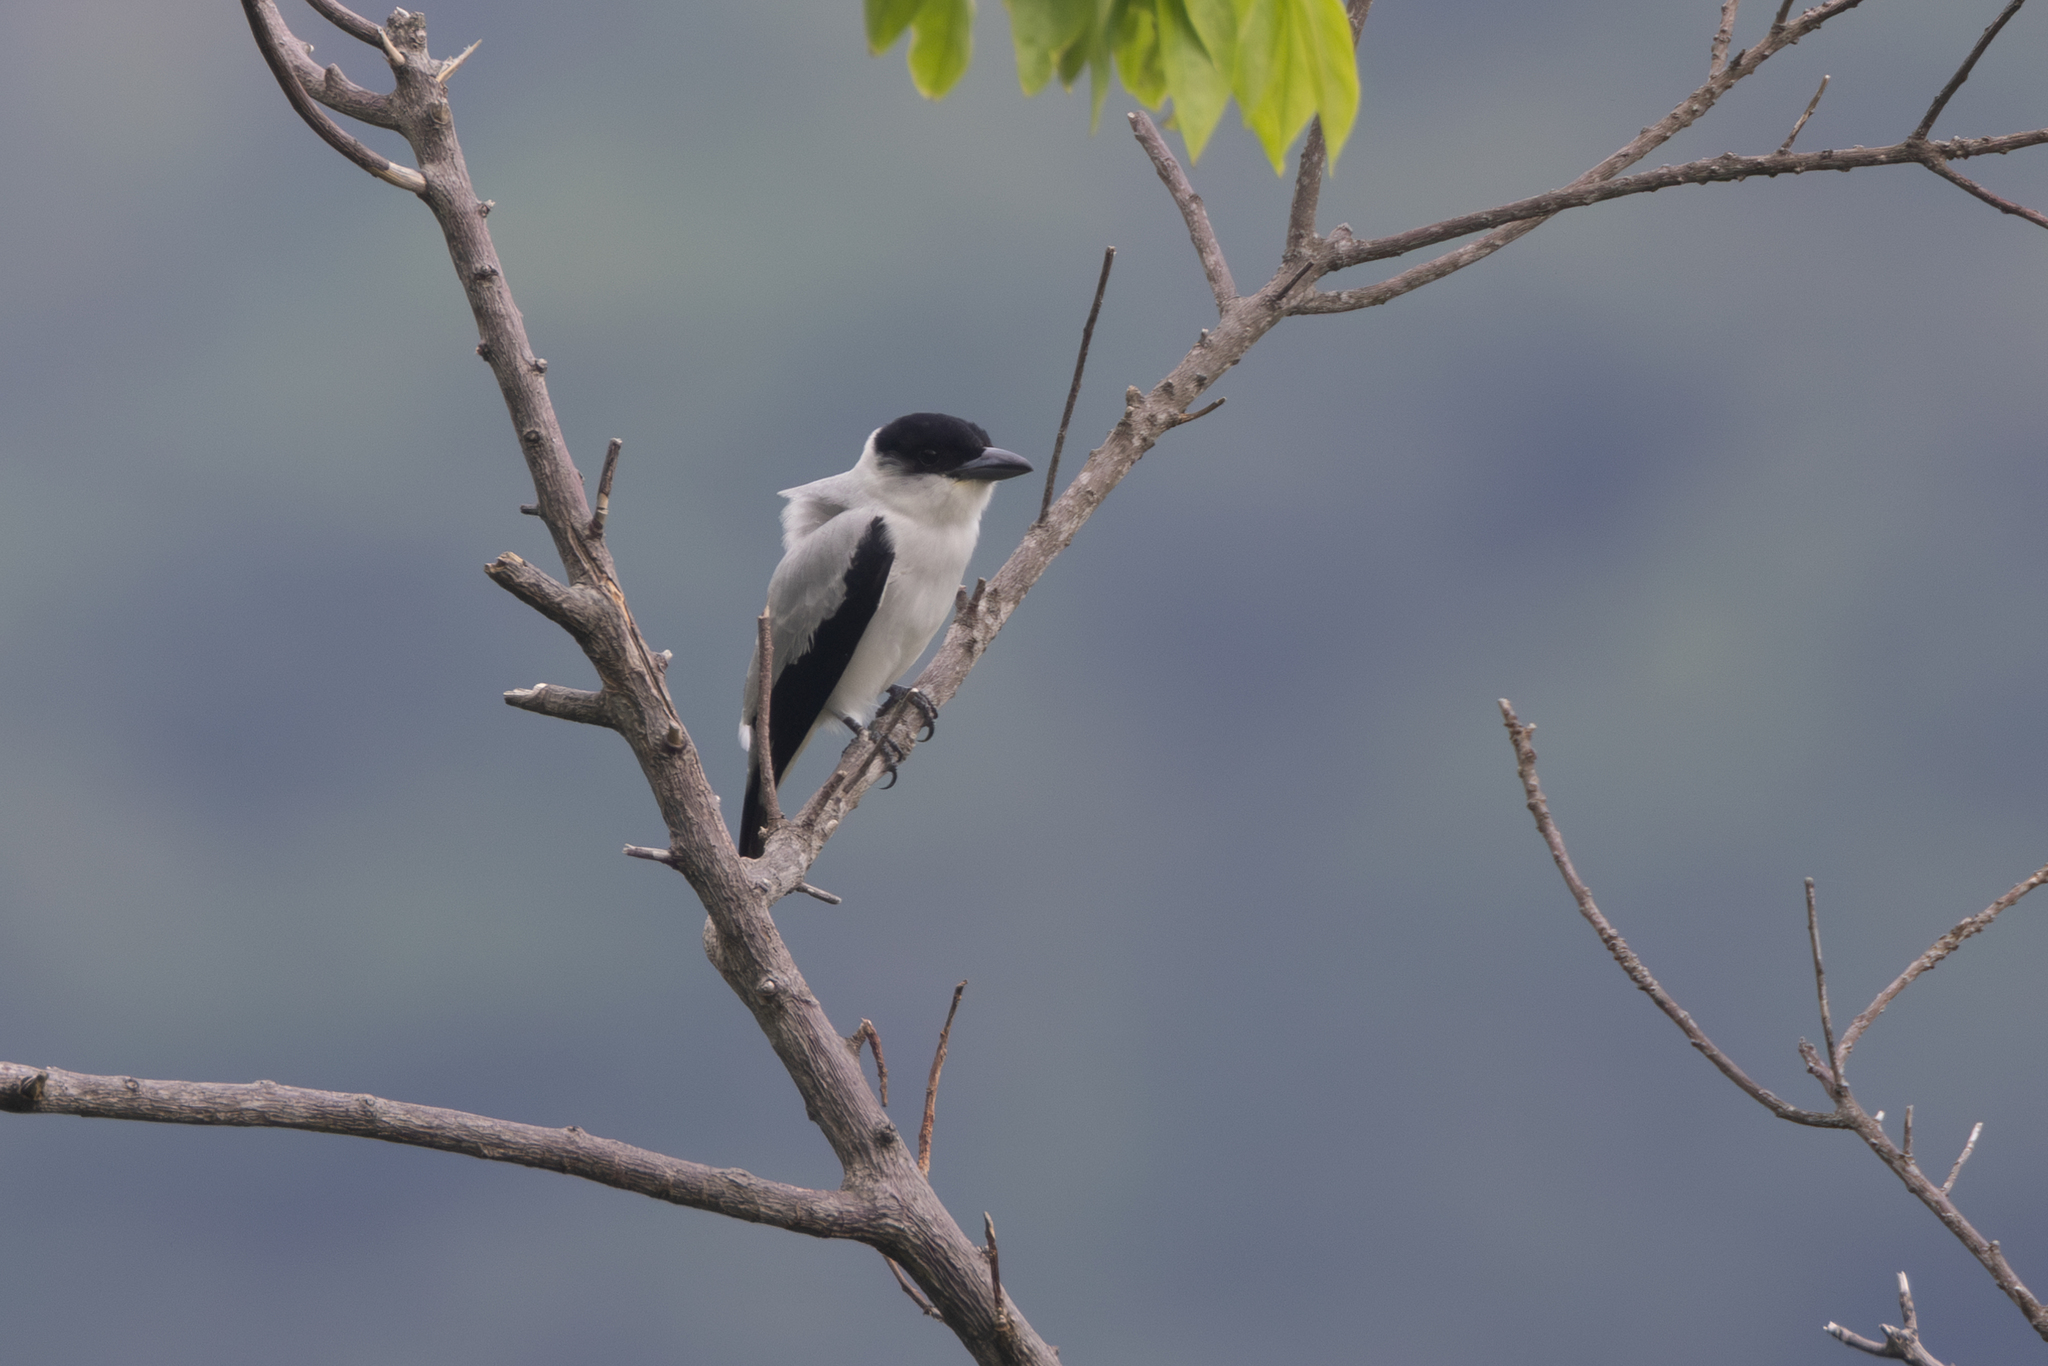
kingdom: Animalia
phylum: Chordata
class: Aves
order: Passeriformes
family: Cotingidae
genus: Tityra
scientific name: Tityra inquisitor
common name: Black-crowned tityra
